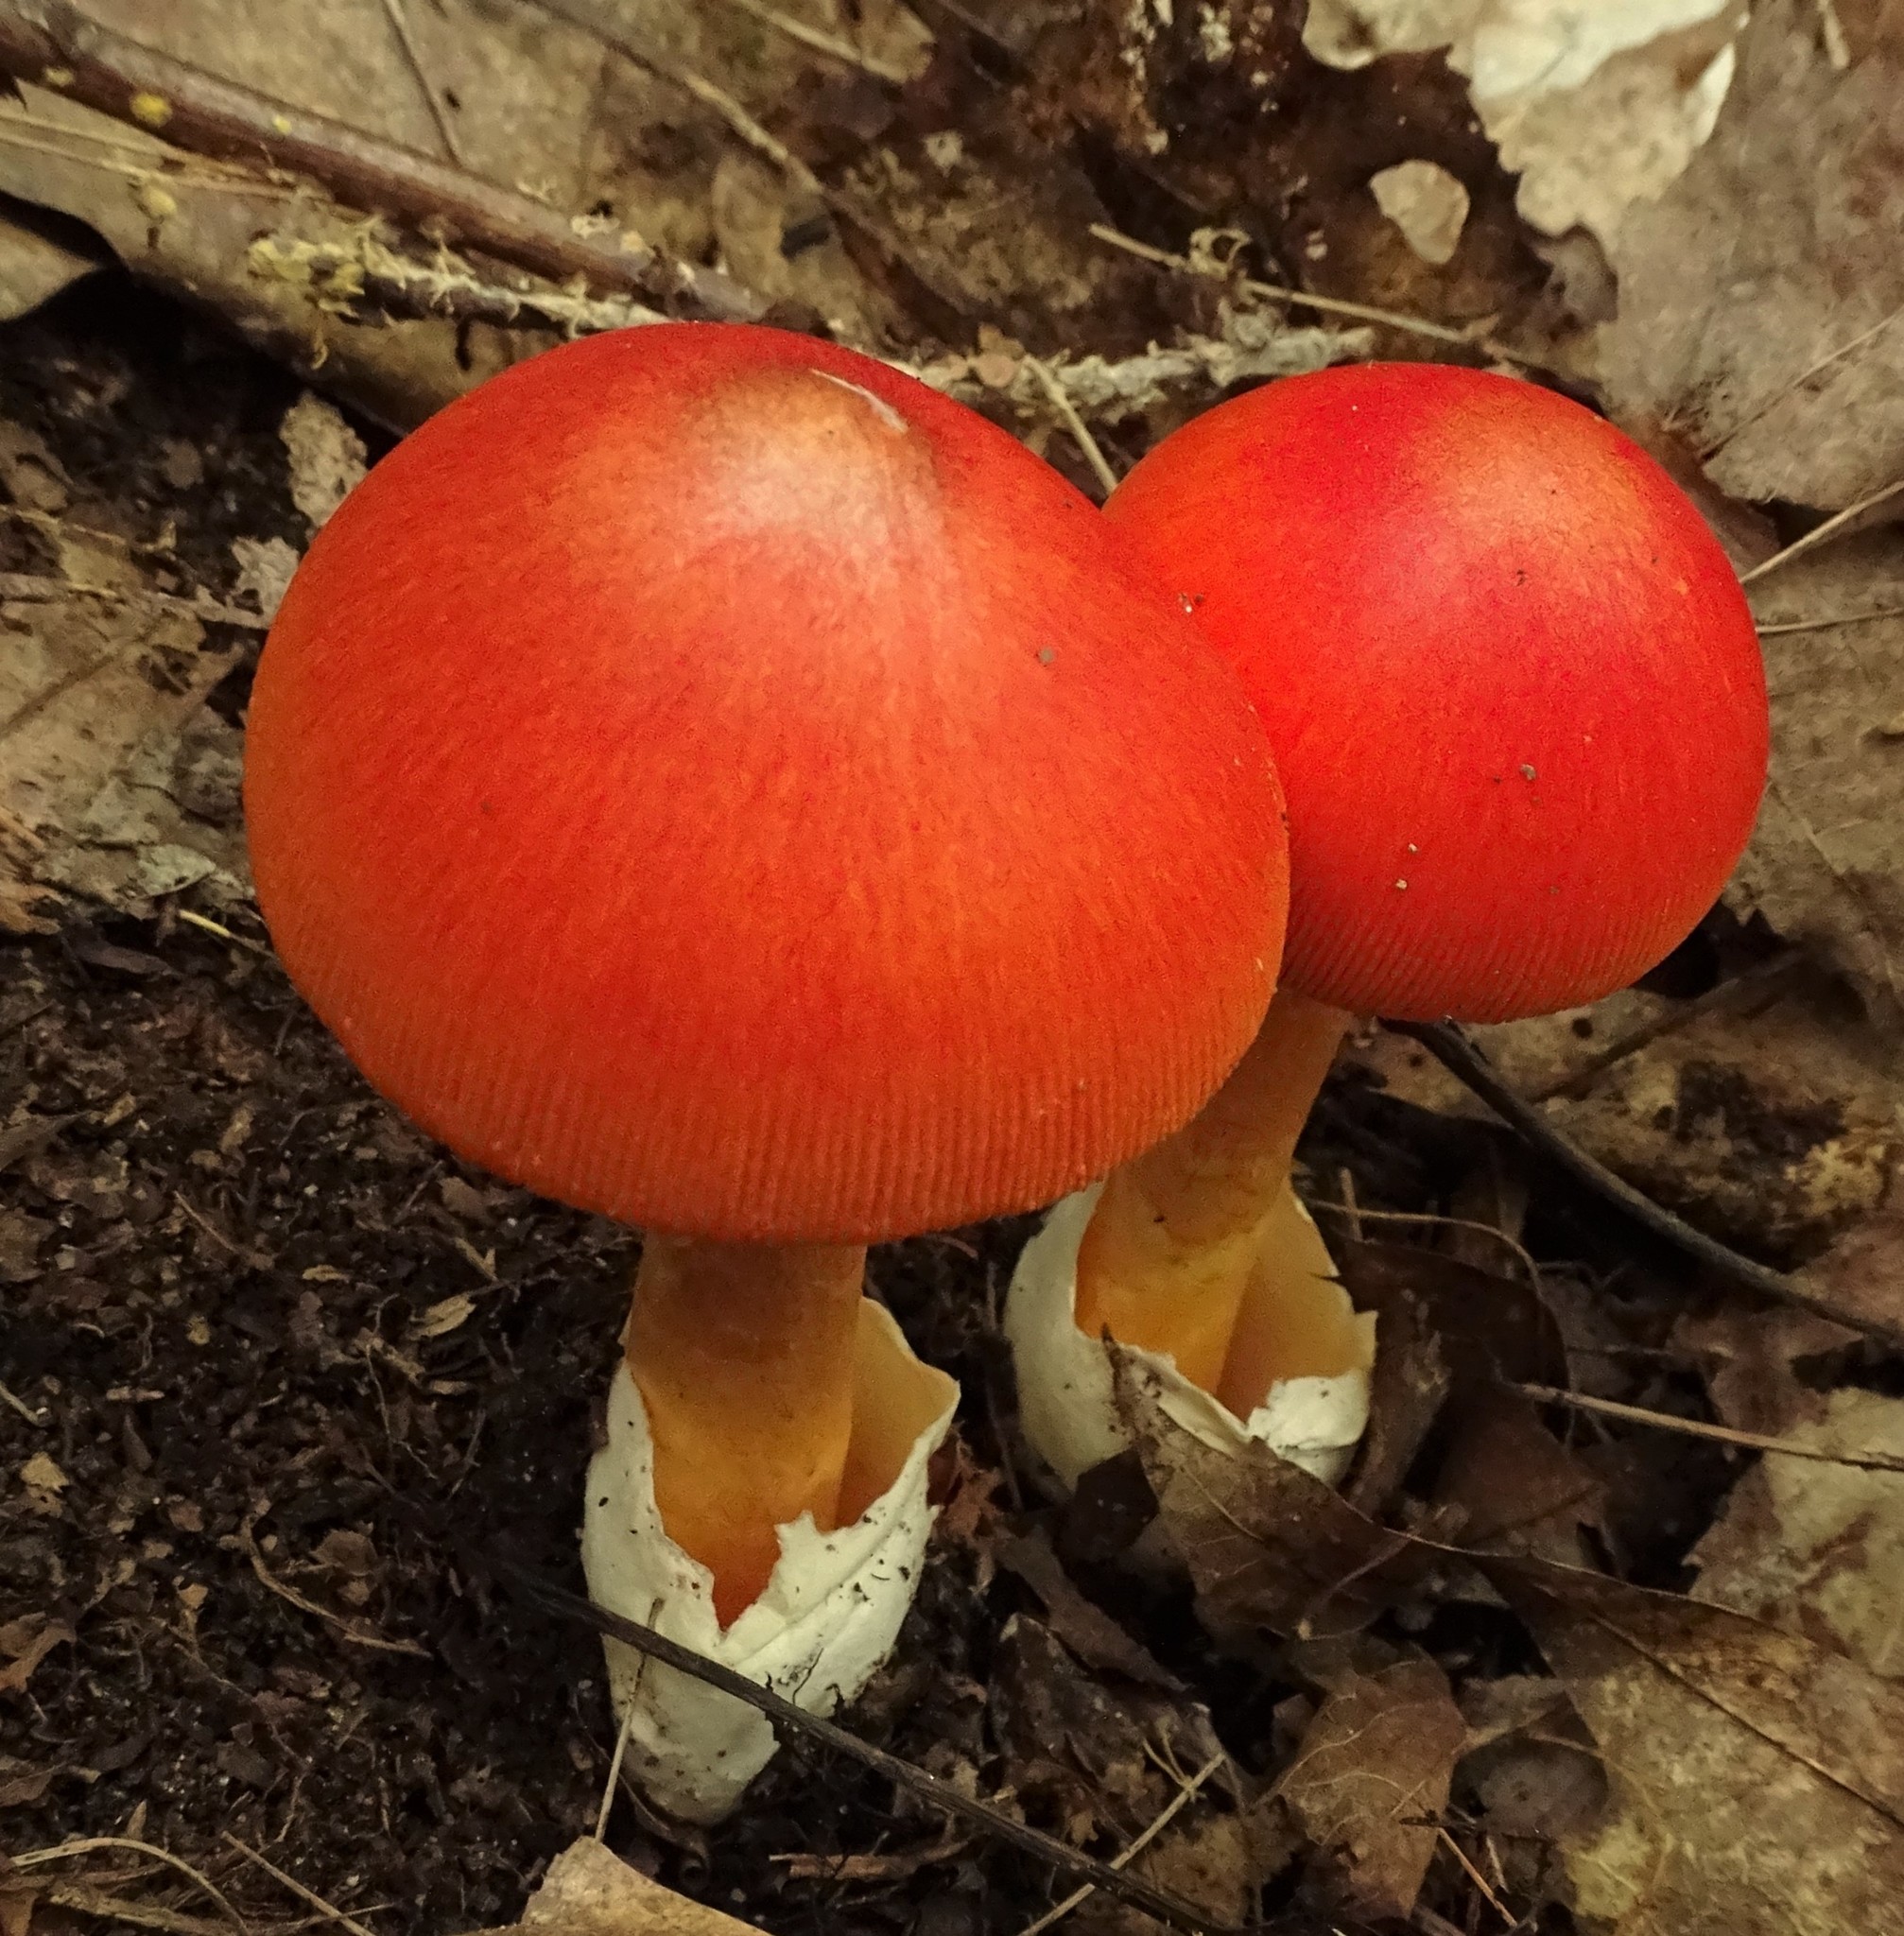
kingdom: Fungi
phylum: Basidiomycota
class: Agaricomycetes
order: Agaricales
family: Amanitaceae
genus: Amanita
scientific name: Amanita jacksonii
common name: Jackson's slender caesar
